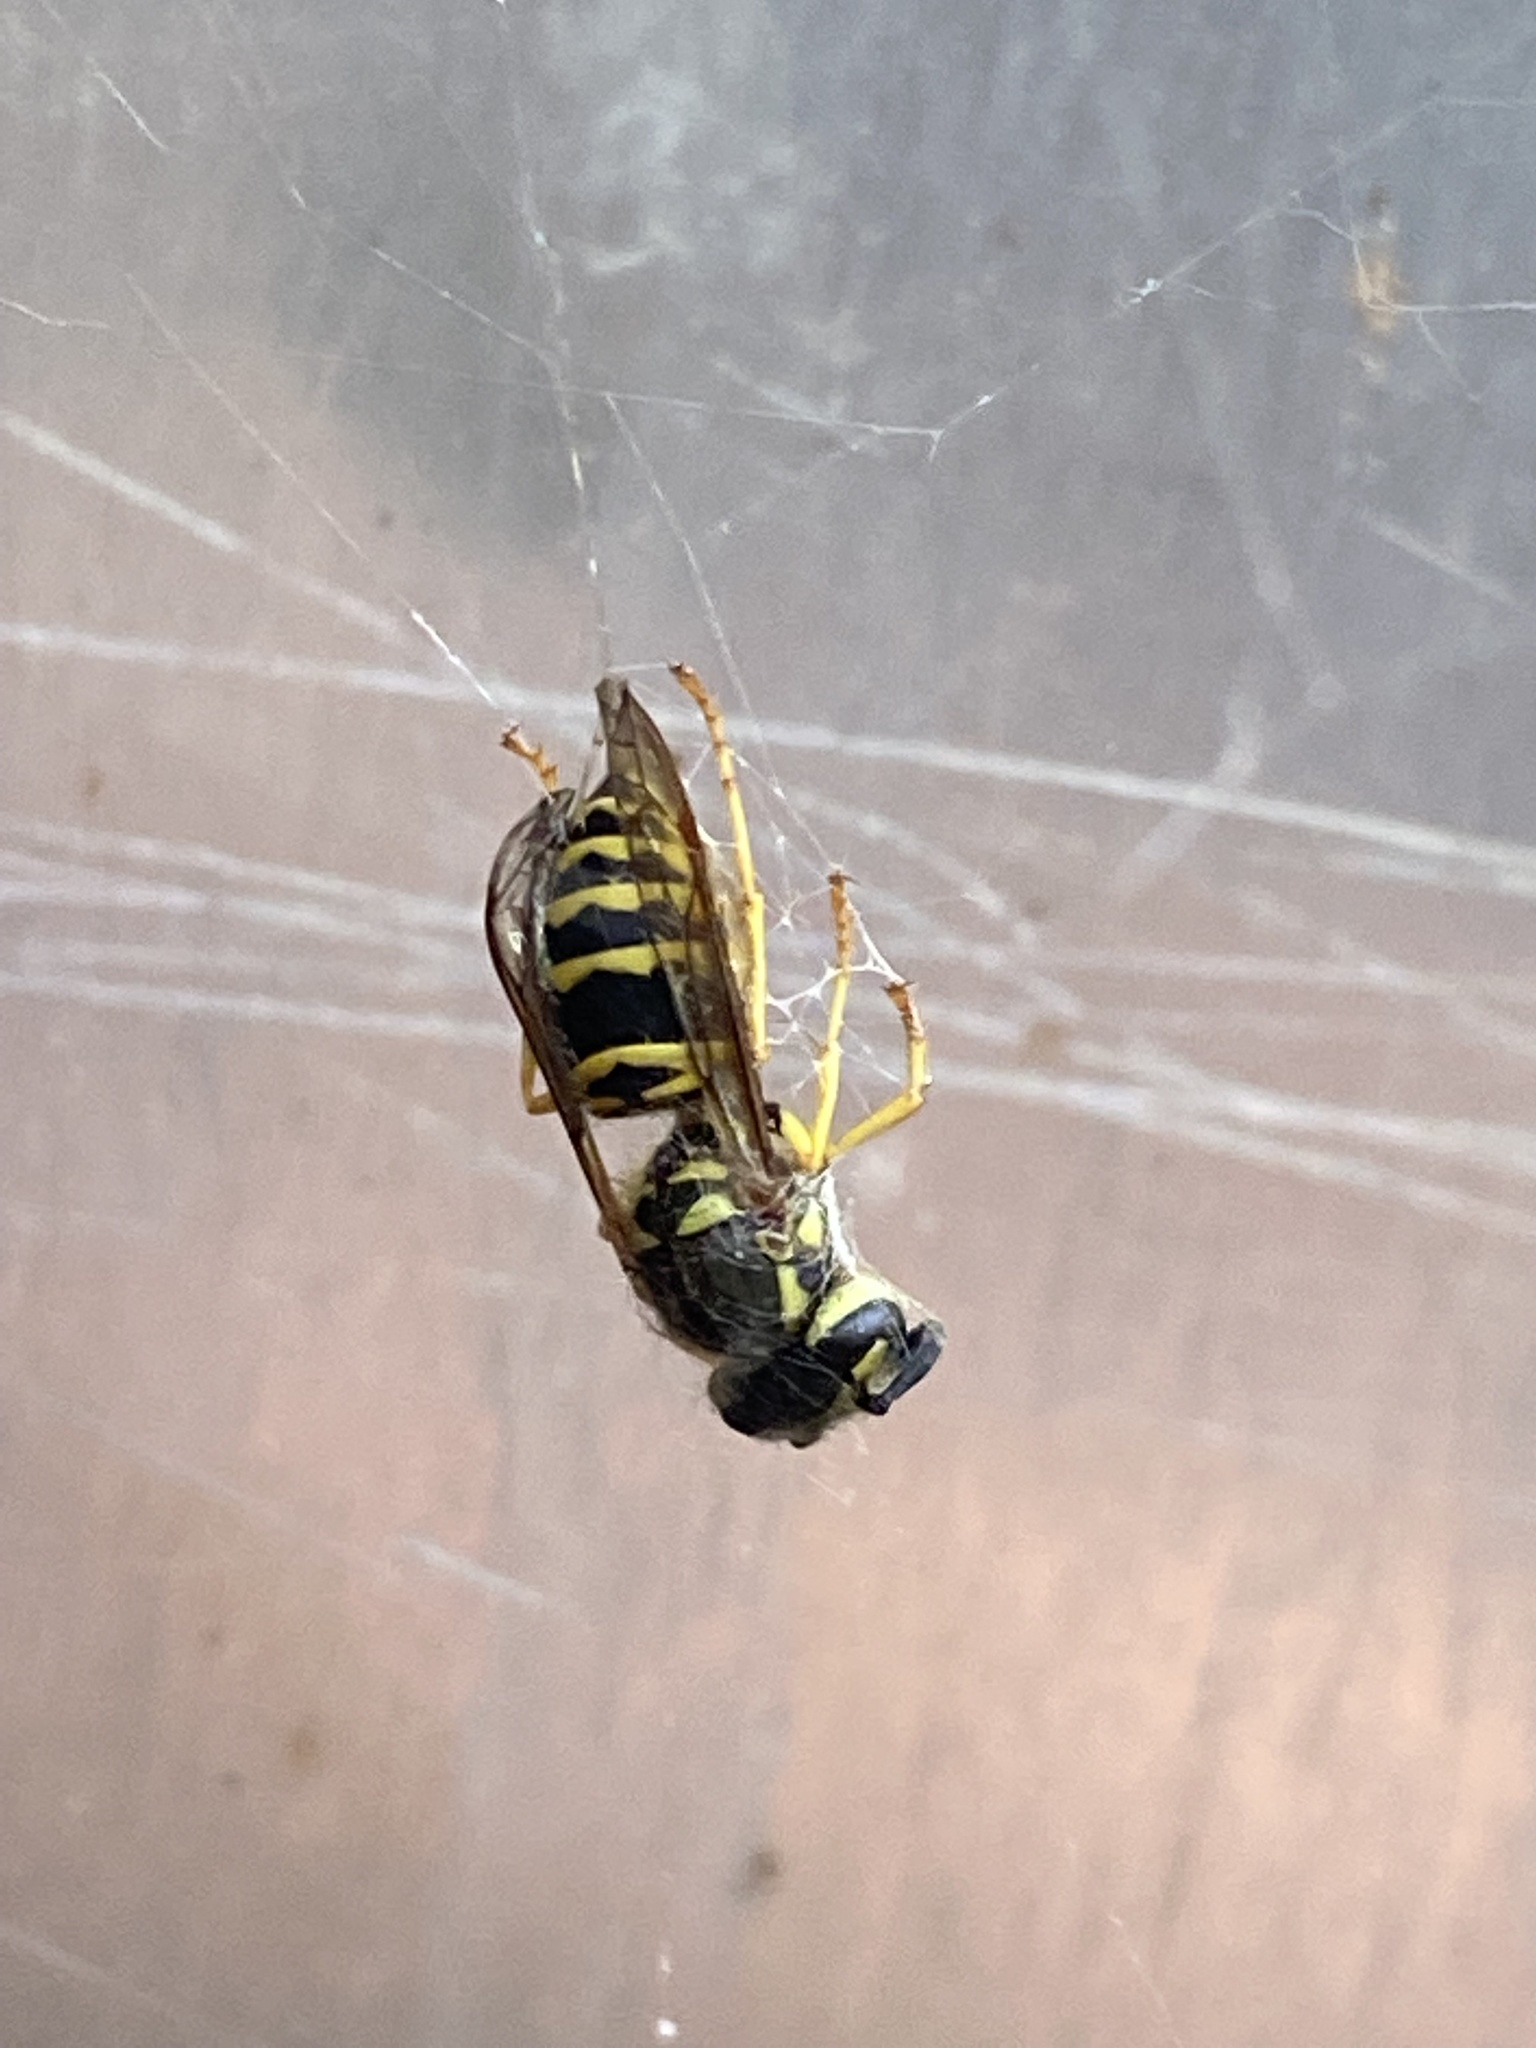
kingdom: Animalia
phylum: Arthropoda
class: Insecta
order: Hymenoptera
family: Vespidae
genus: Vespula
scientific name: Vespula maculifrons
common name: Eastern yellowjacket
